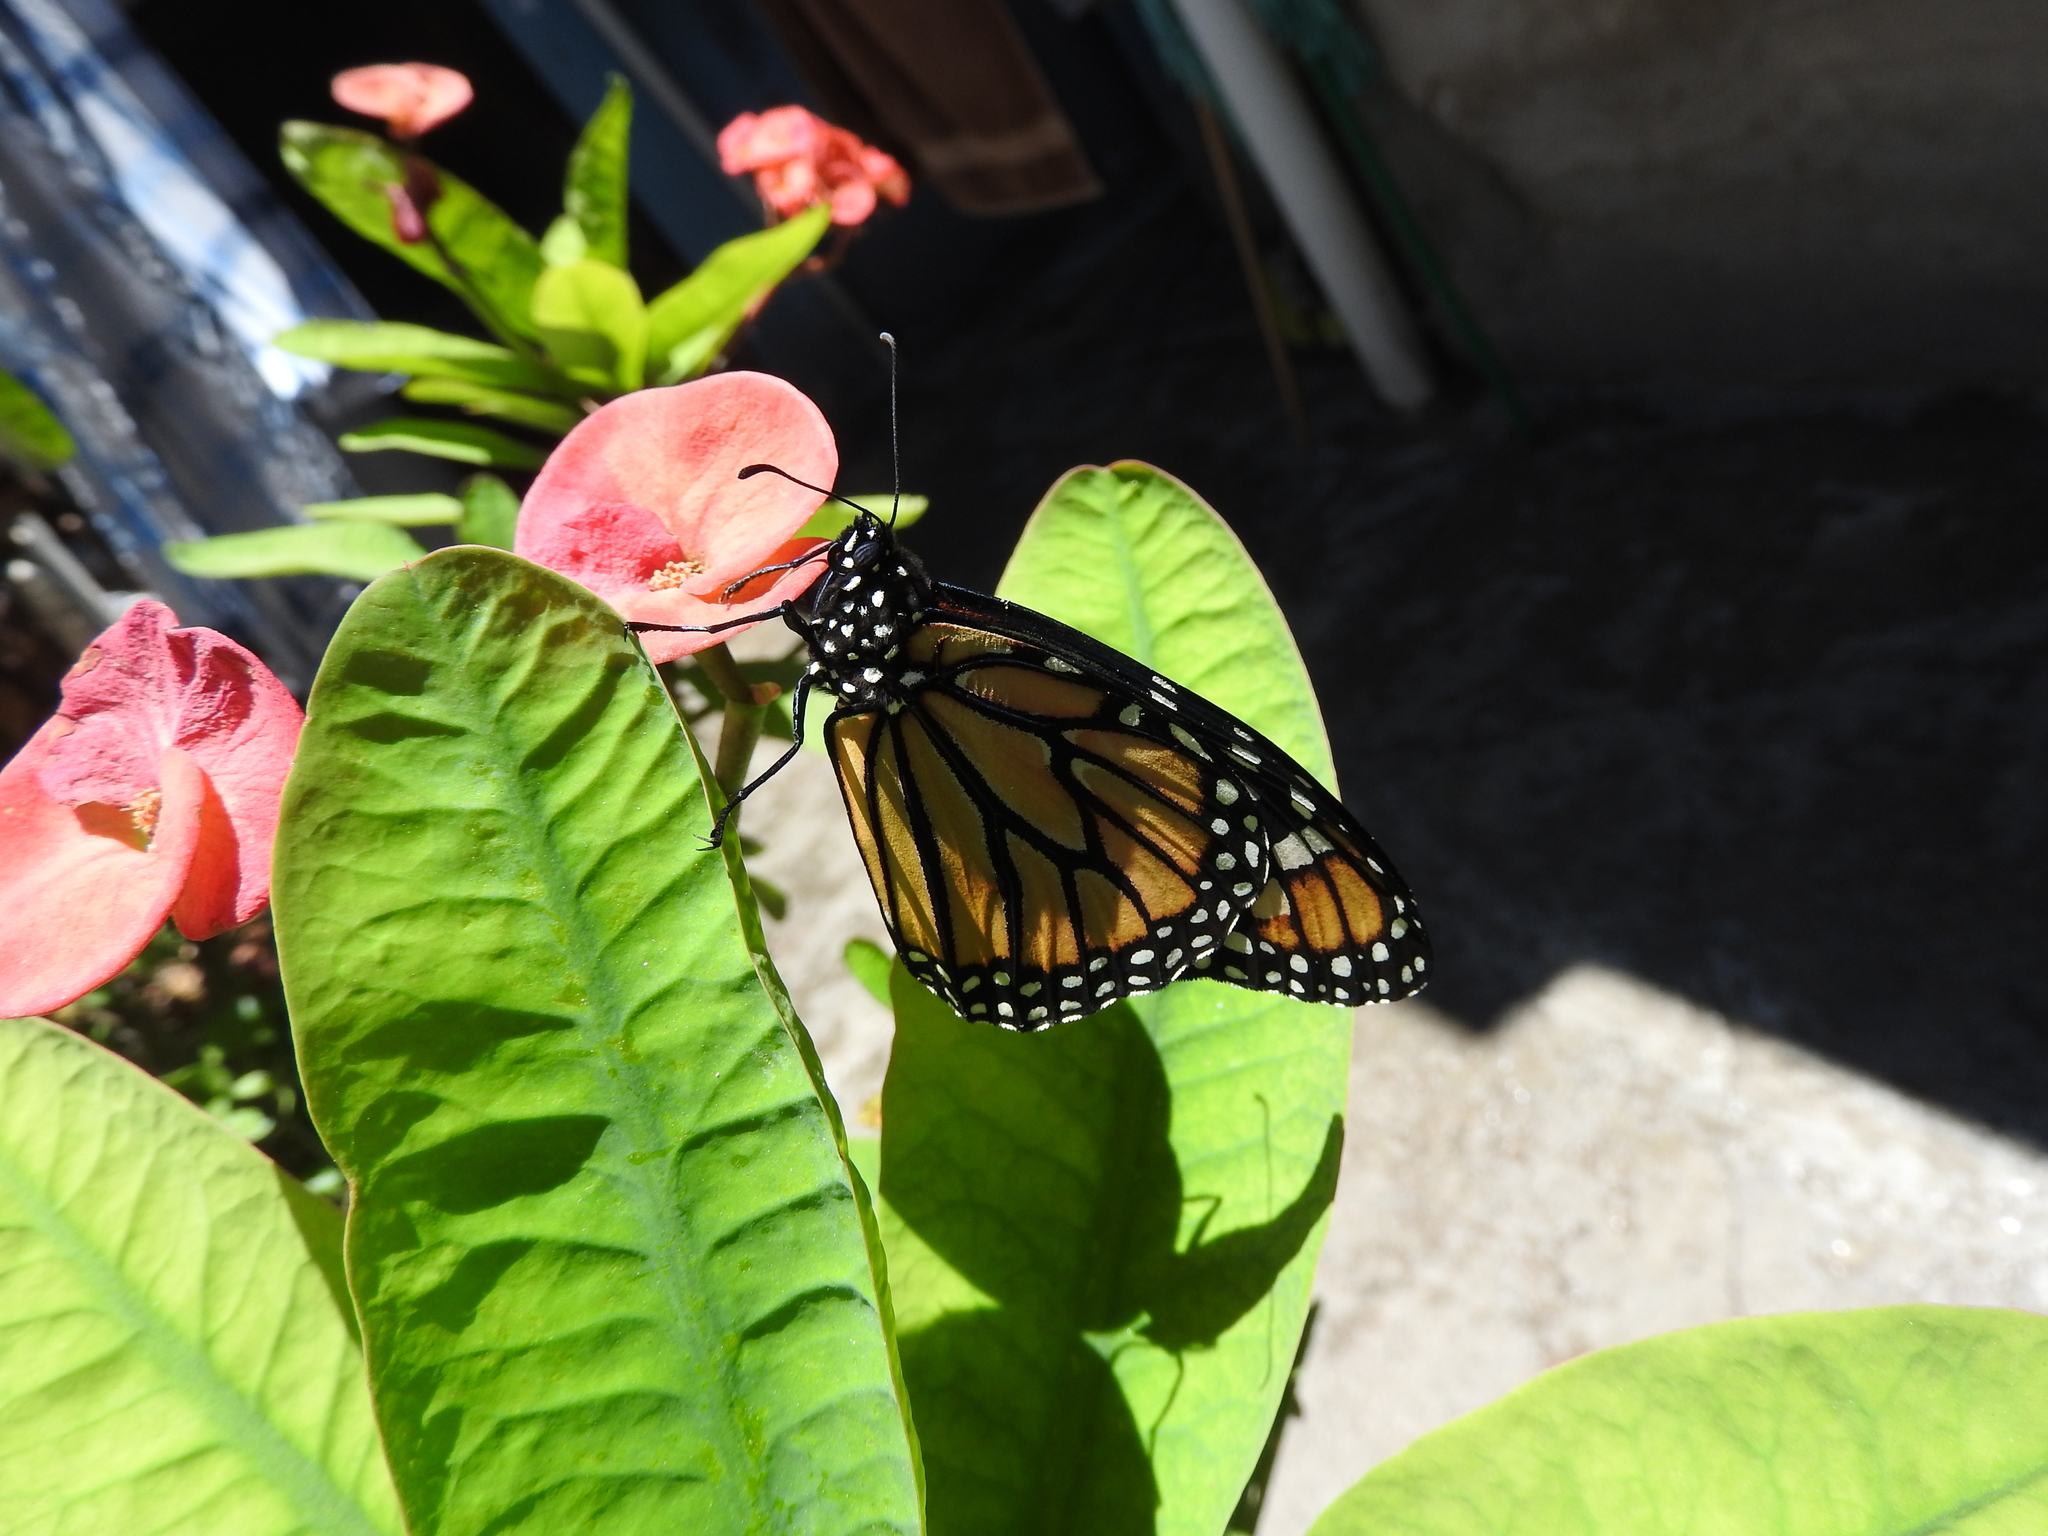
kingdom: Animalia
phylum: Arthropoda
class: Insecta
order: Lepidoptera
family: Nymphalidae
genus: Danaus
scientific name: Danaus plexippus
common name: Monarch
